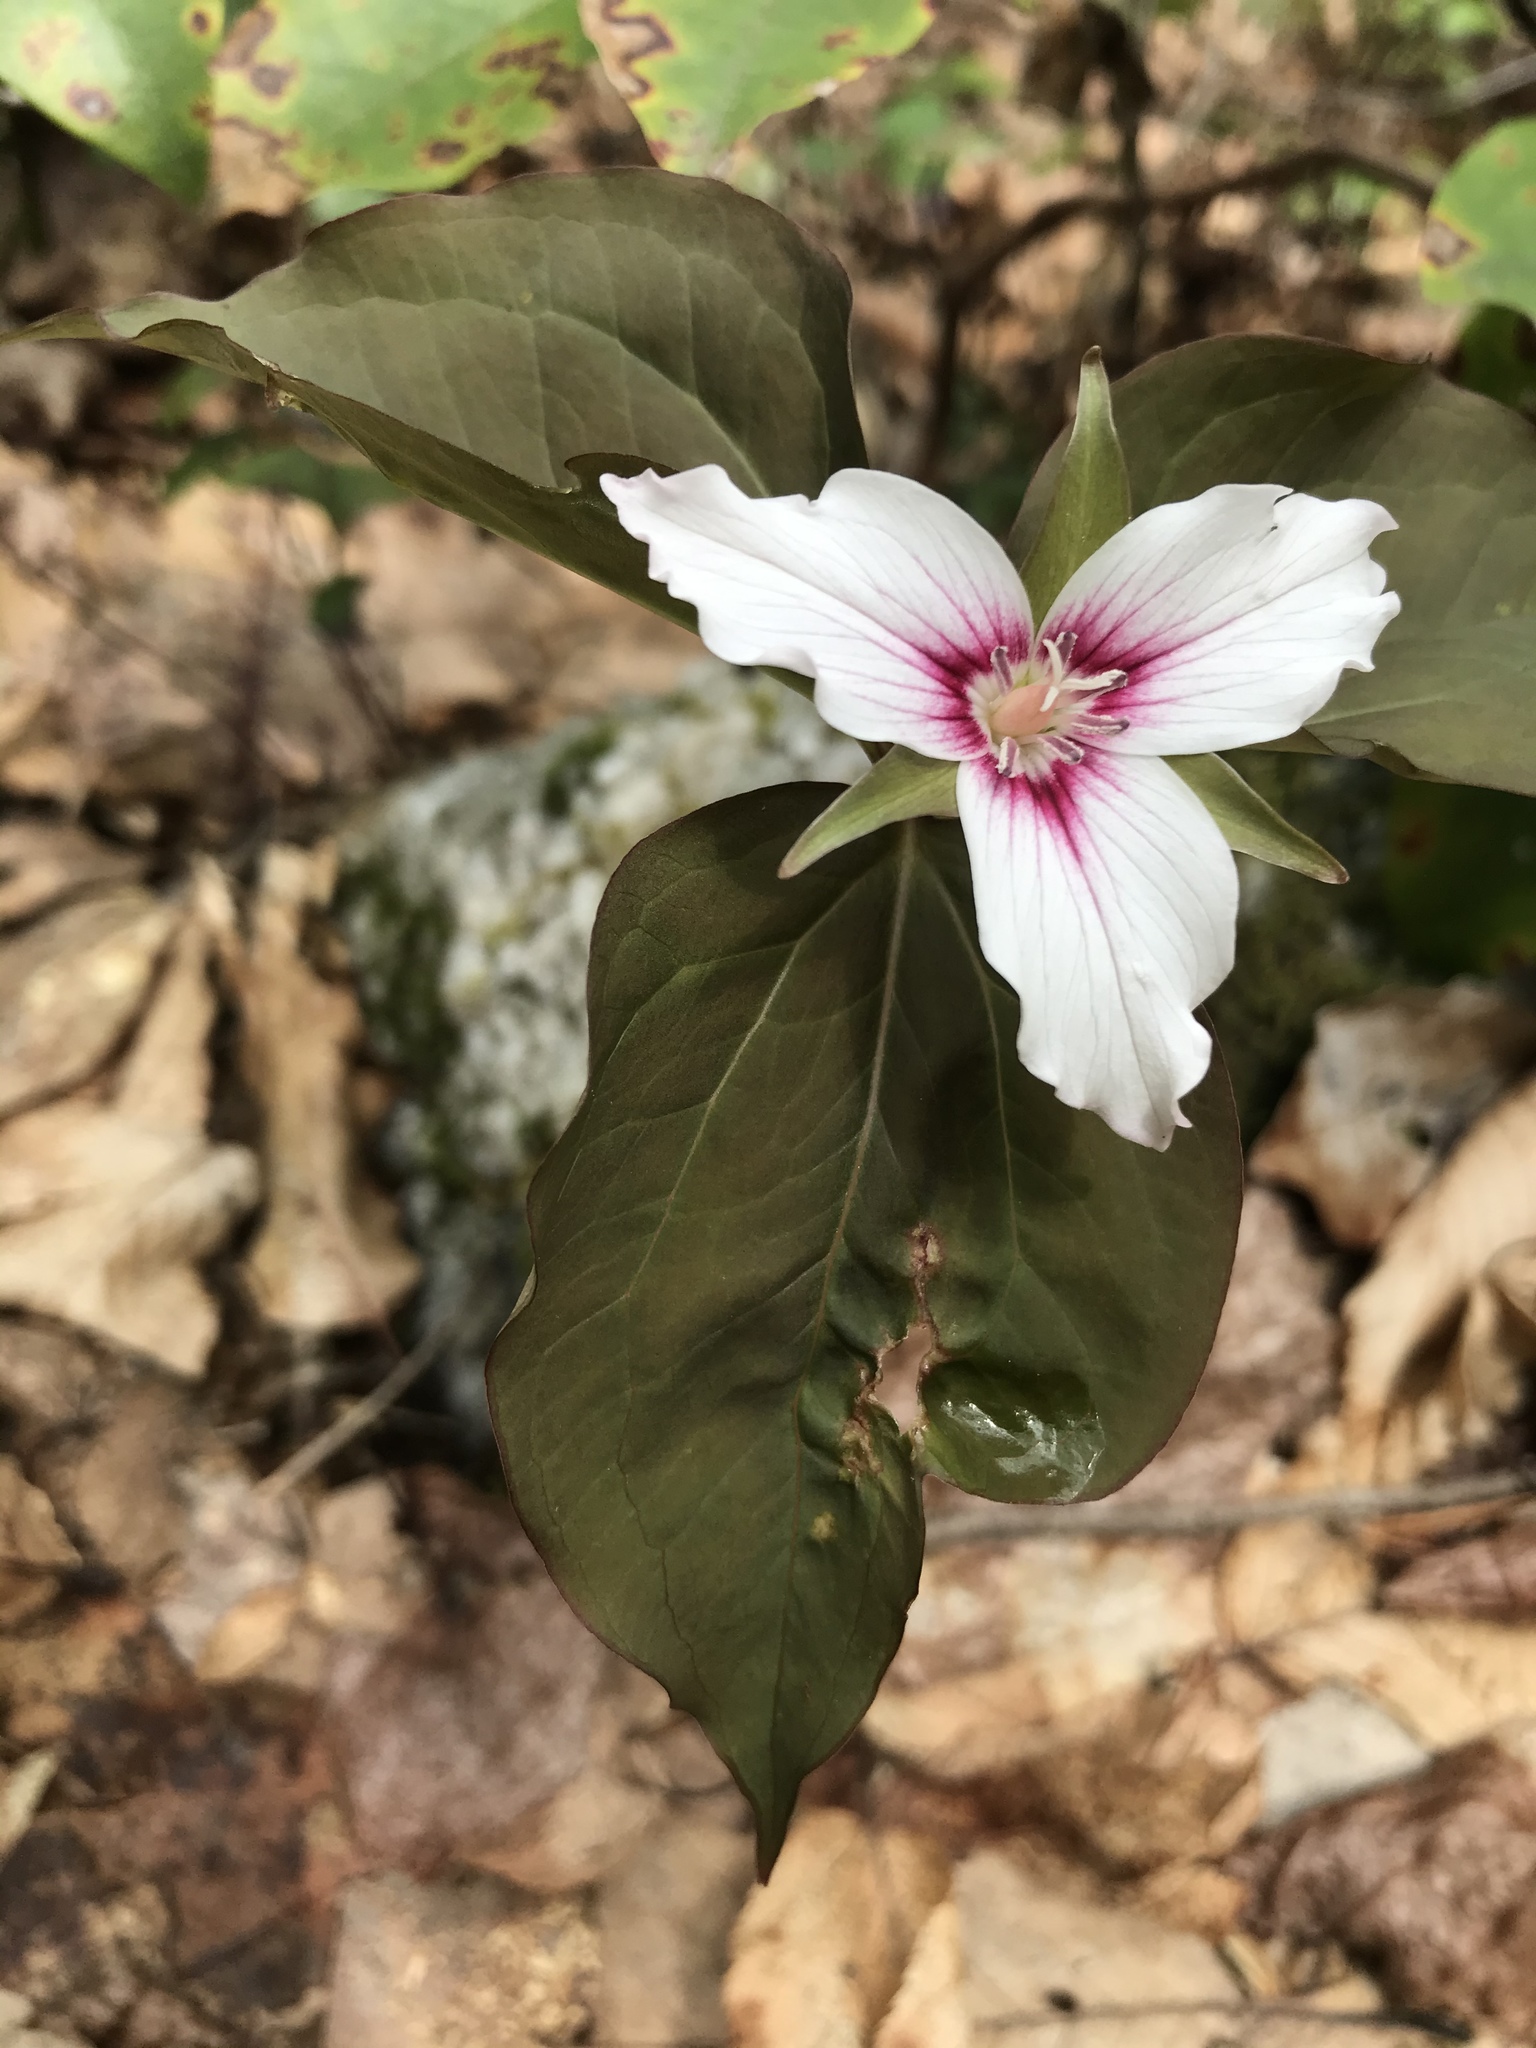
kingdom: Plantae
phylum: Tracheophyta
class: Liliopsida
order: Liliales
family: Melanthiaceae
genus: Trillium
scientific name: Trillium undulatum
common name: Paint trillium
